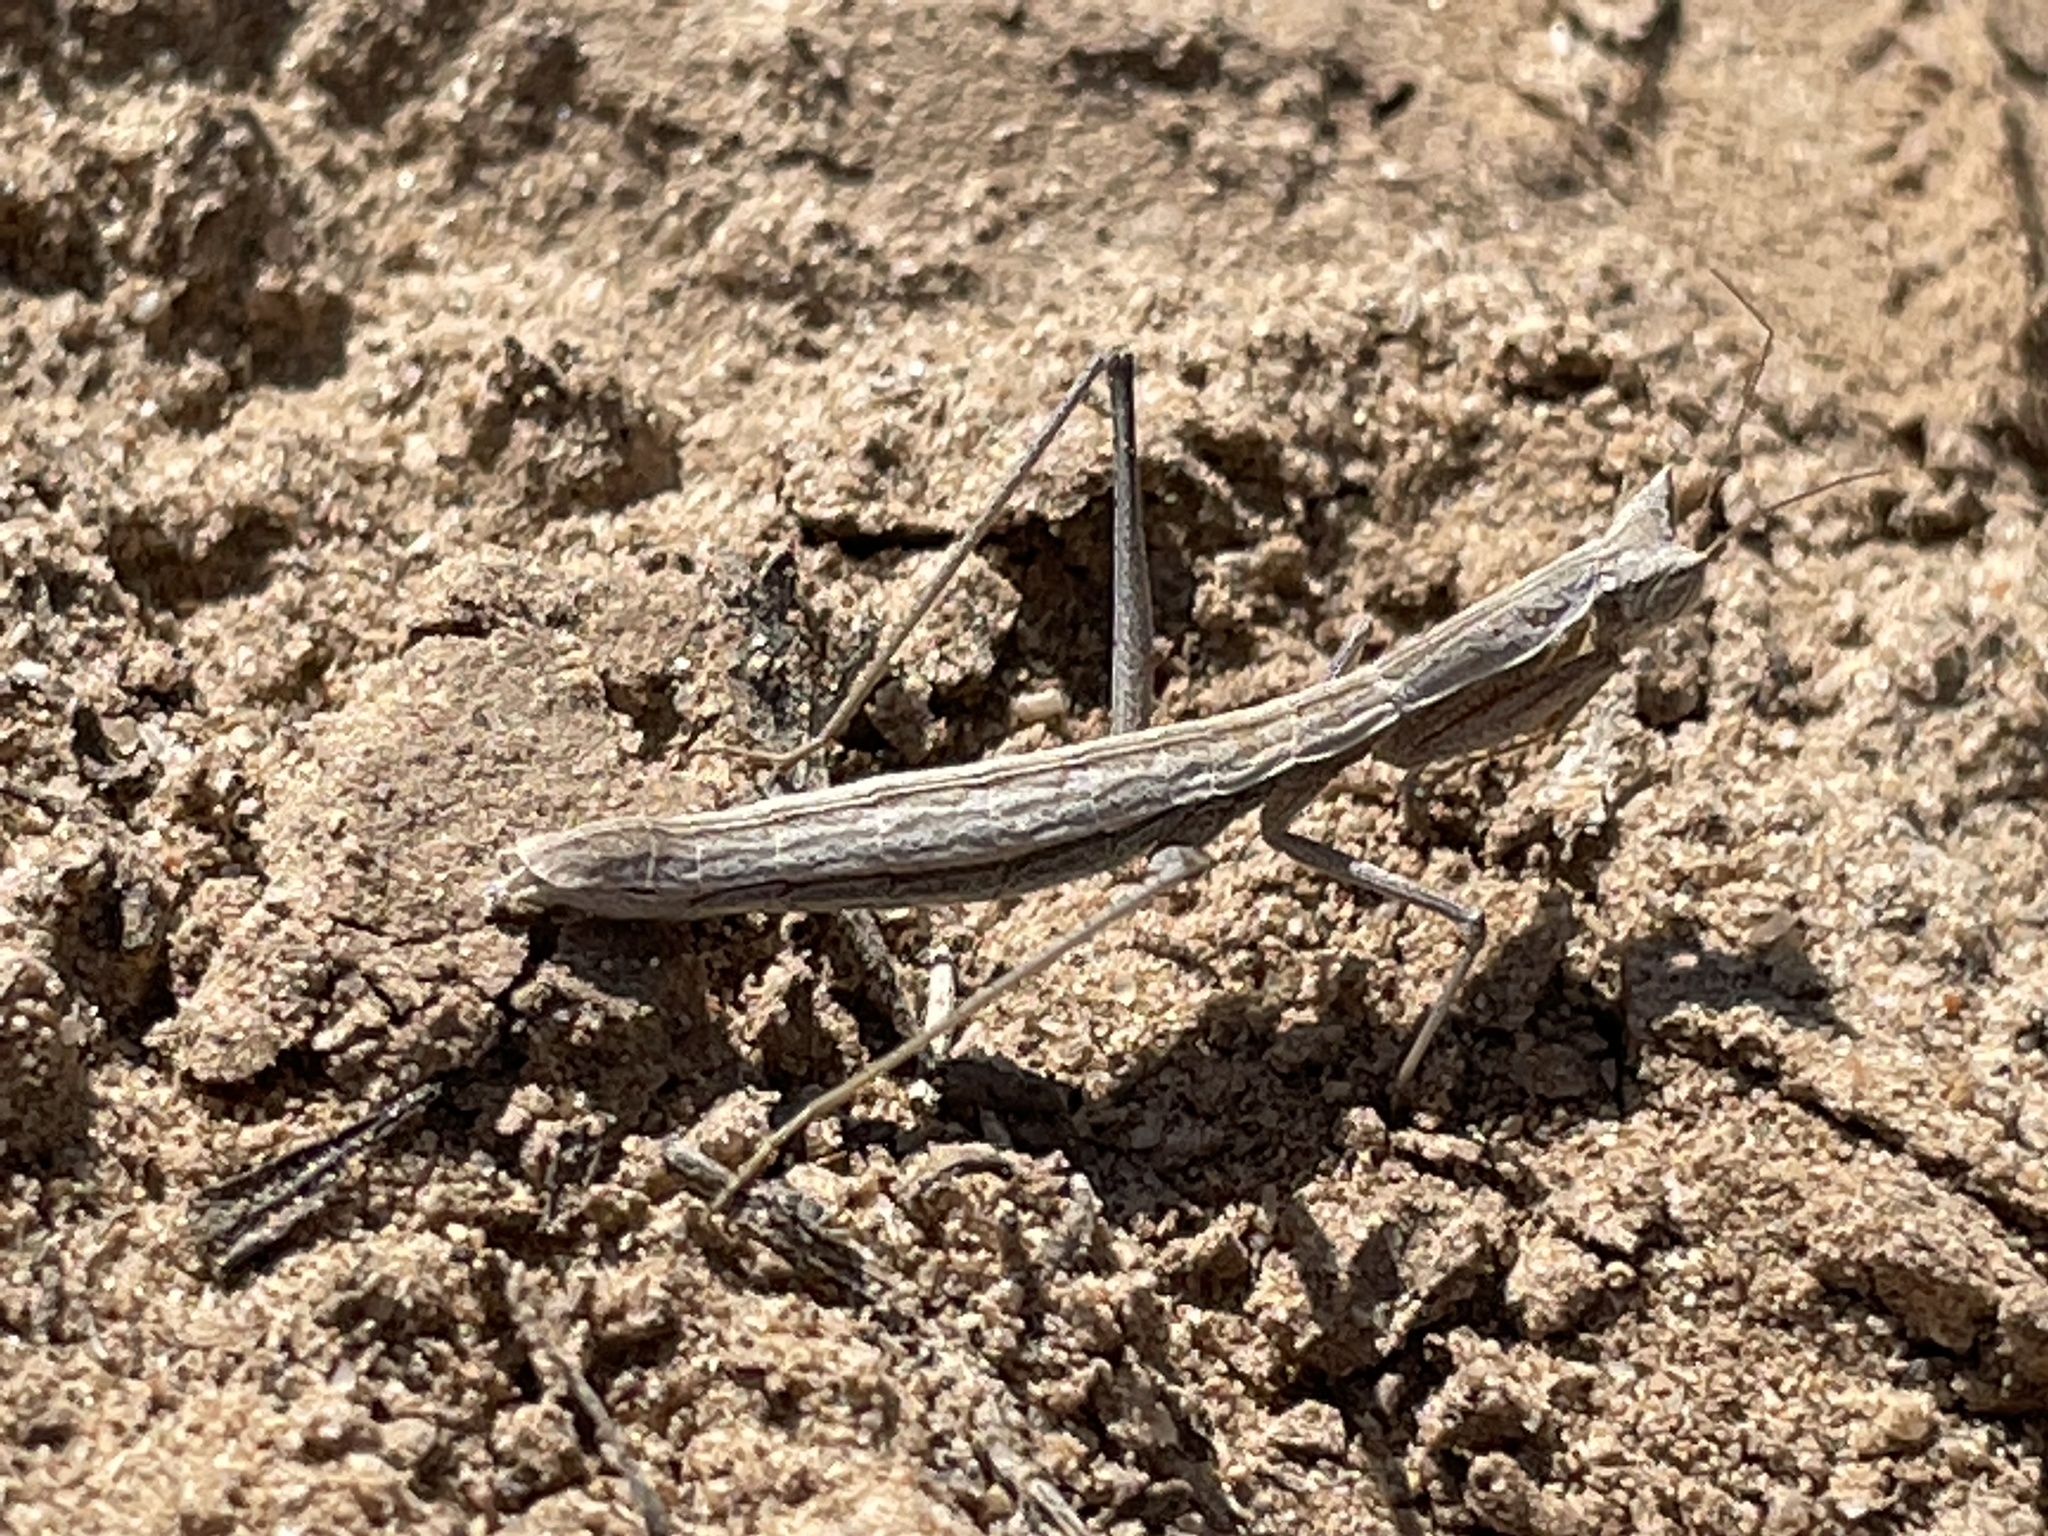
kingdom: Animalia
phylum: Arthropoda
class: Insecta
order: Mantodea
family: Amelidae
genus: Yersiniops
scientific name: Yersiniops solitarius
